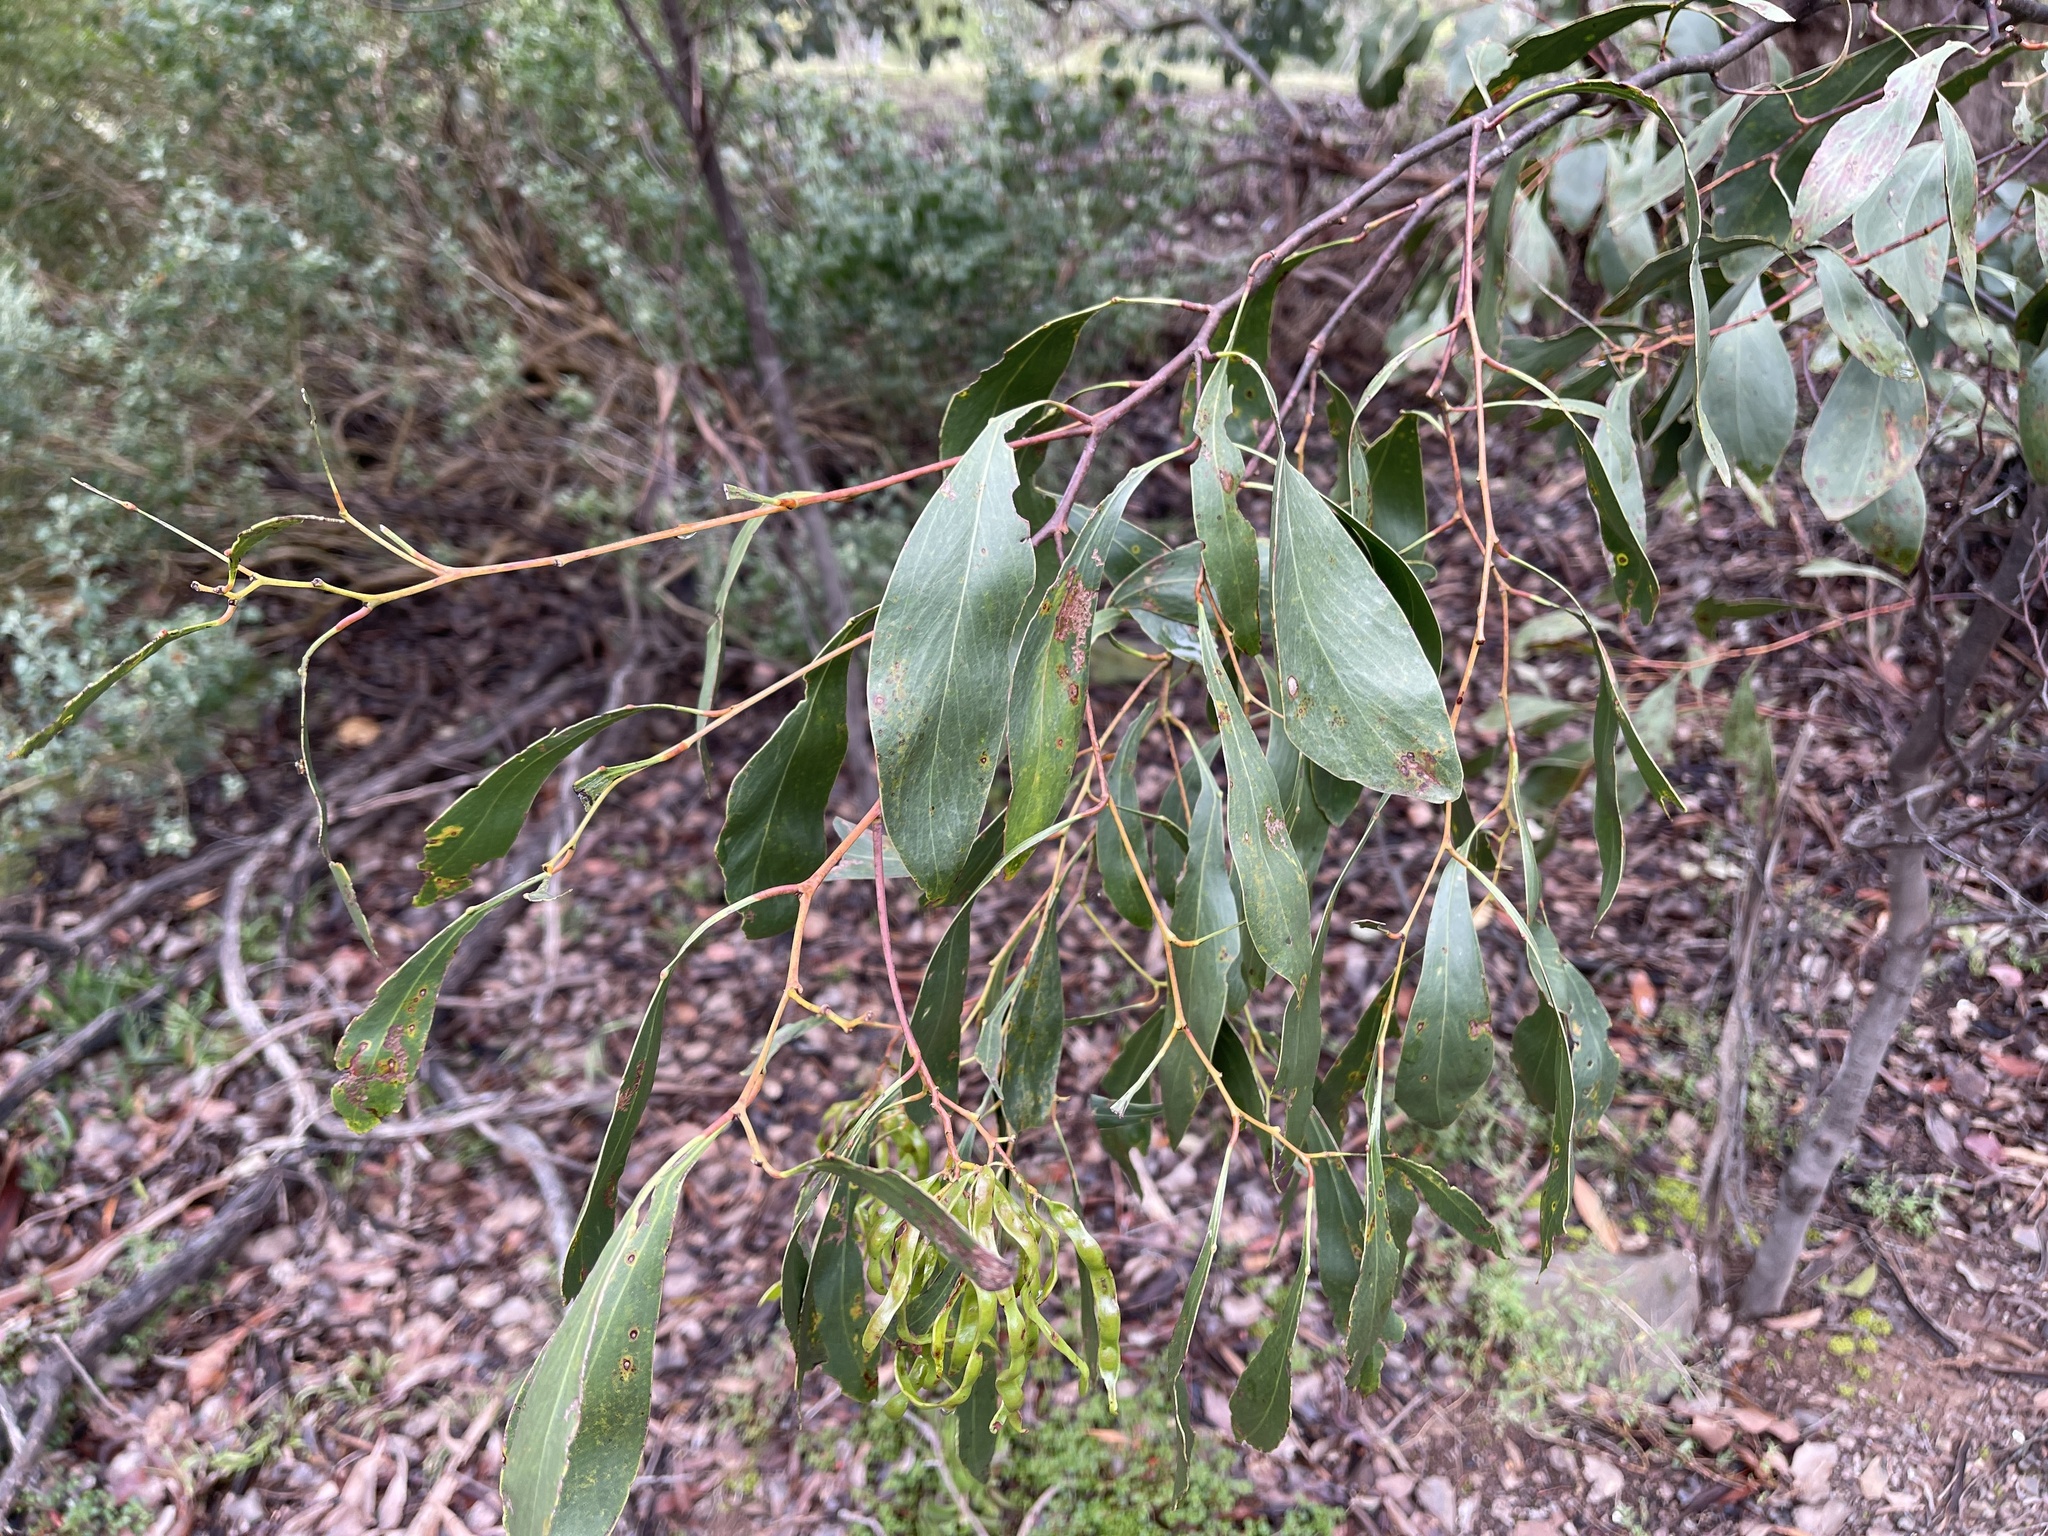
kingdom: Plantae
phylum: Tracheophyta
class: Magnoliopsida
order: Fabales
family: Fabaceae
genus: Acacia
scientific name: Acacia pycnantha
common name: Golden wattle
